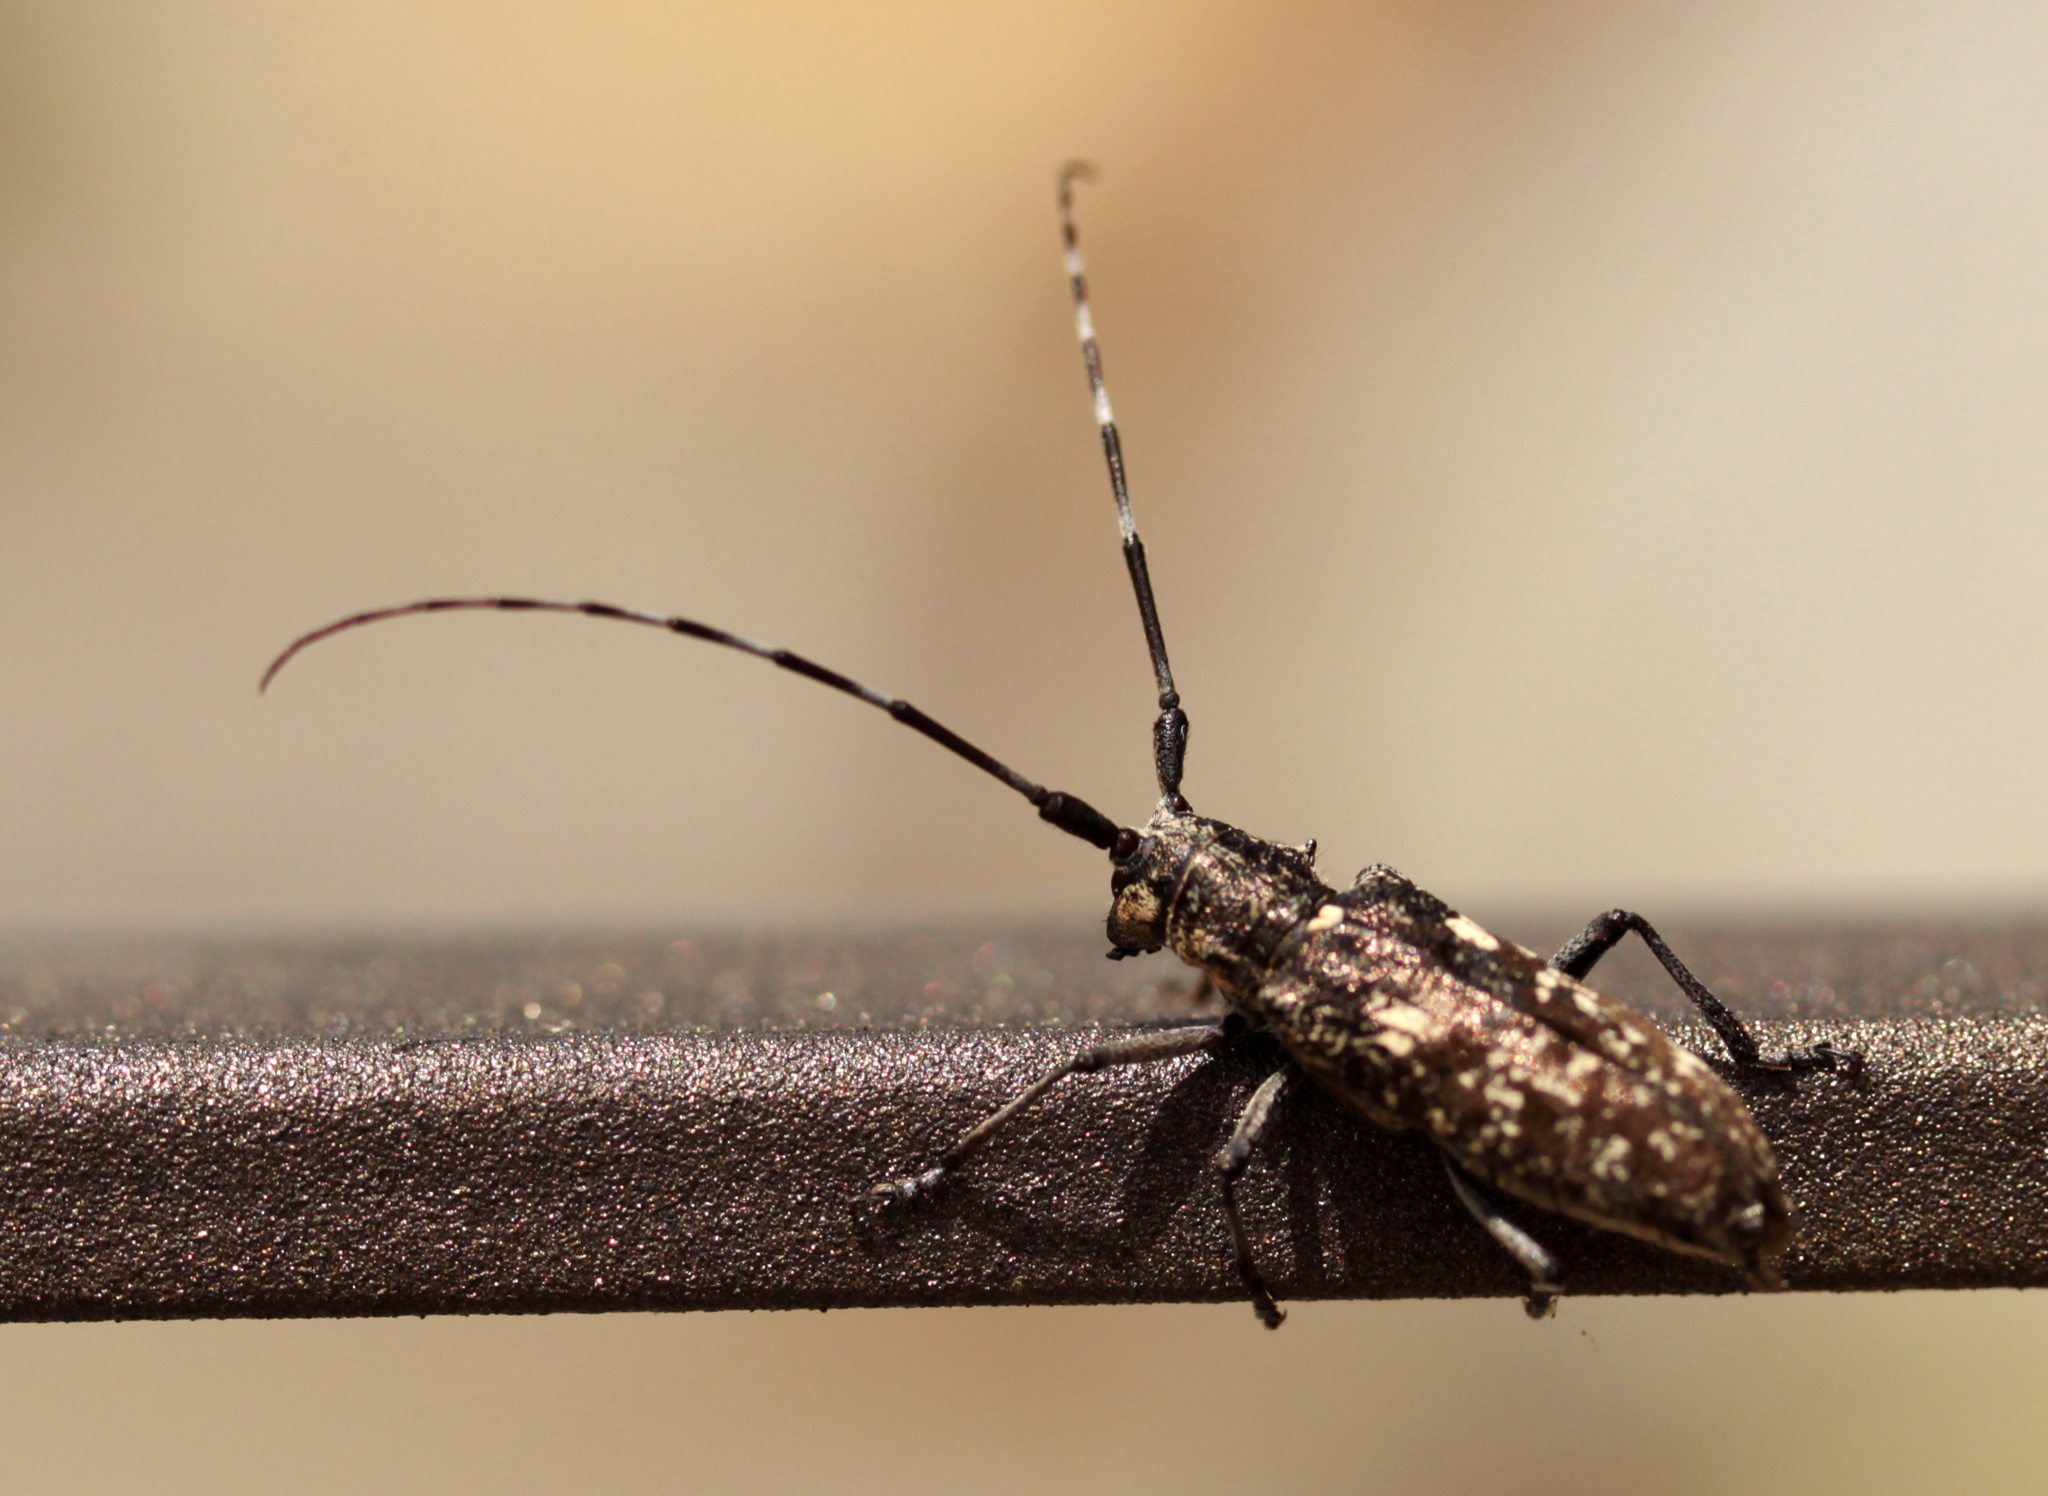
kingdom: Animalia
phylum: Arthropoda
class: Insecta
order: Coleoptera
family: Cerambycidae
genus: Monochamus
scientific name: Monochamus scutellatus
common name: White-spotted sawyer beetle
